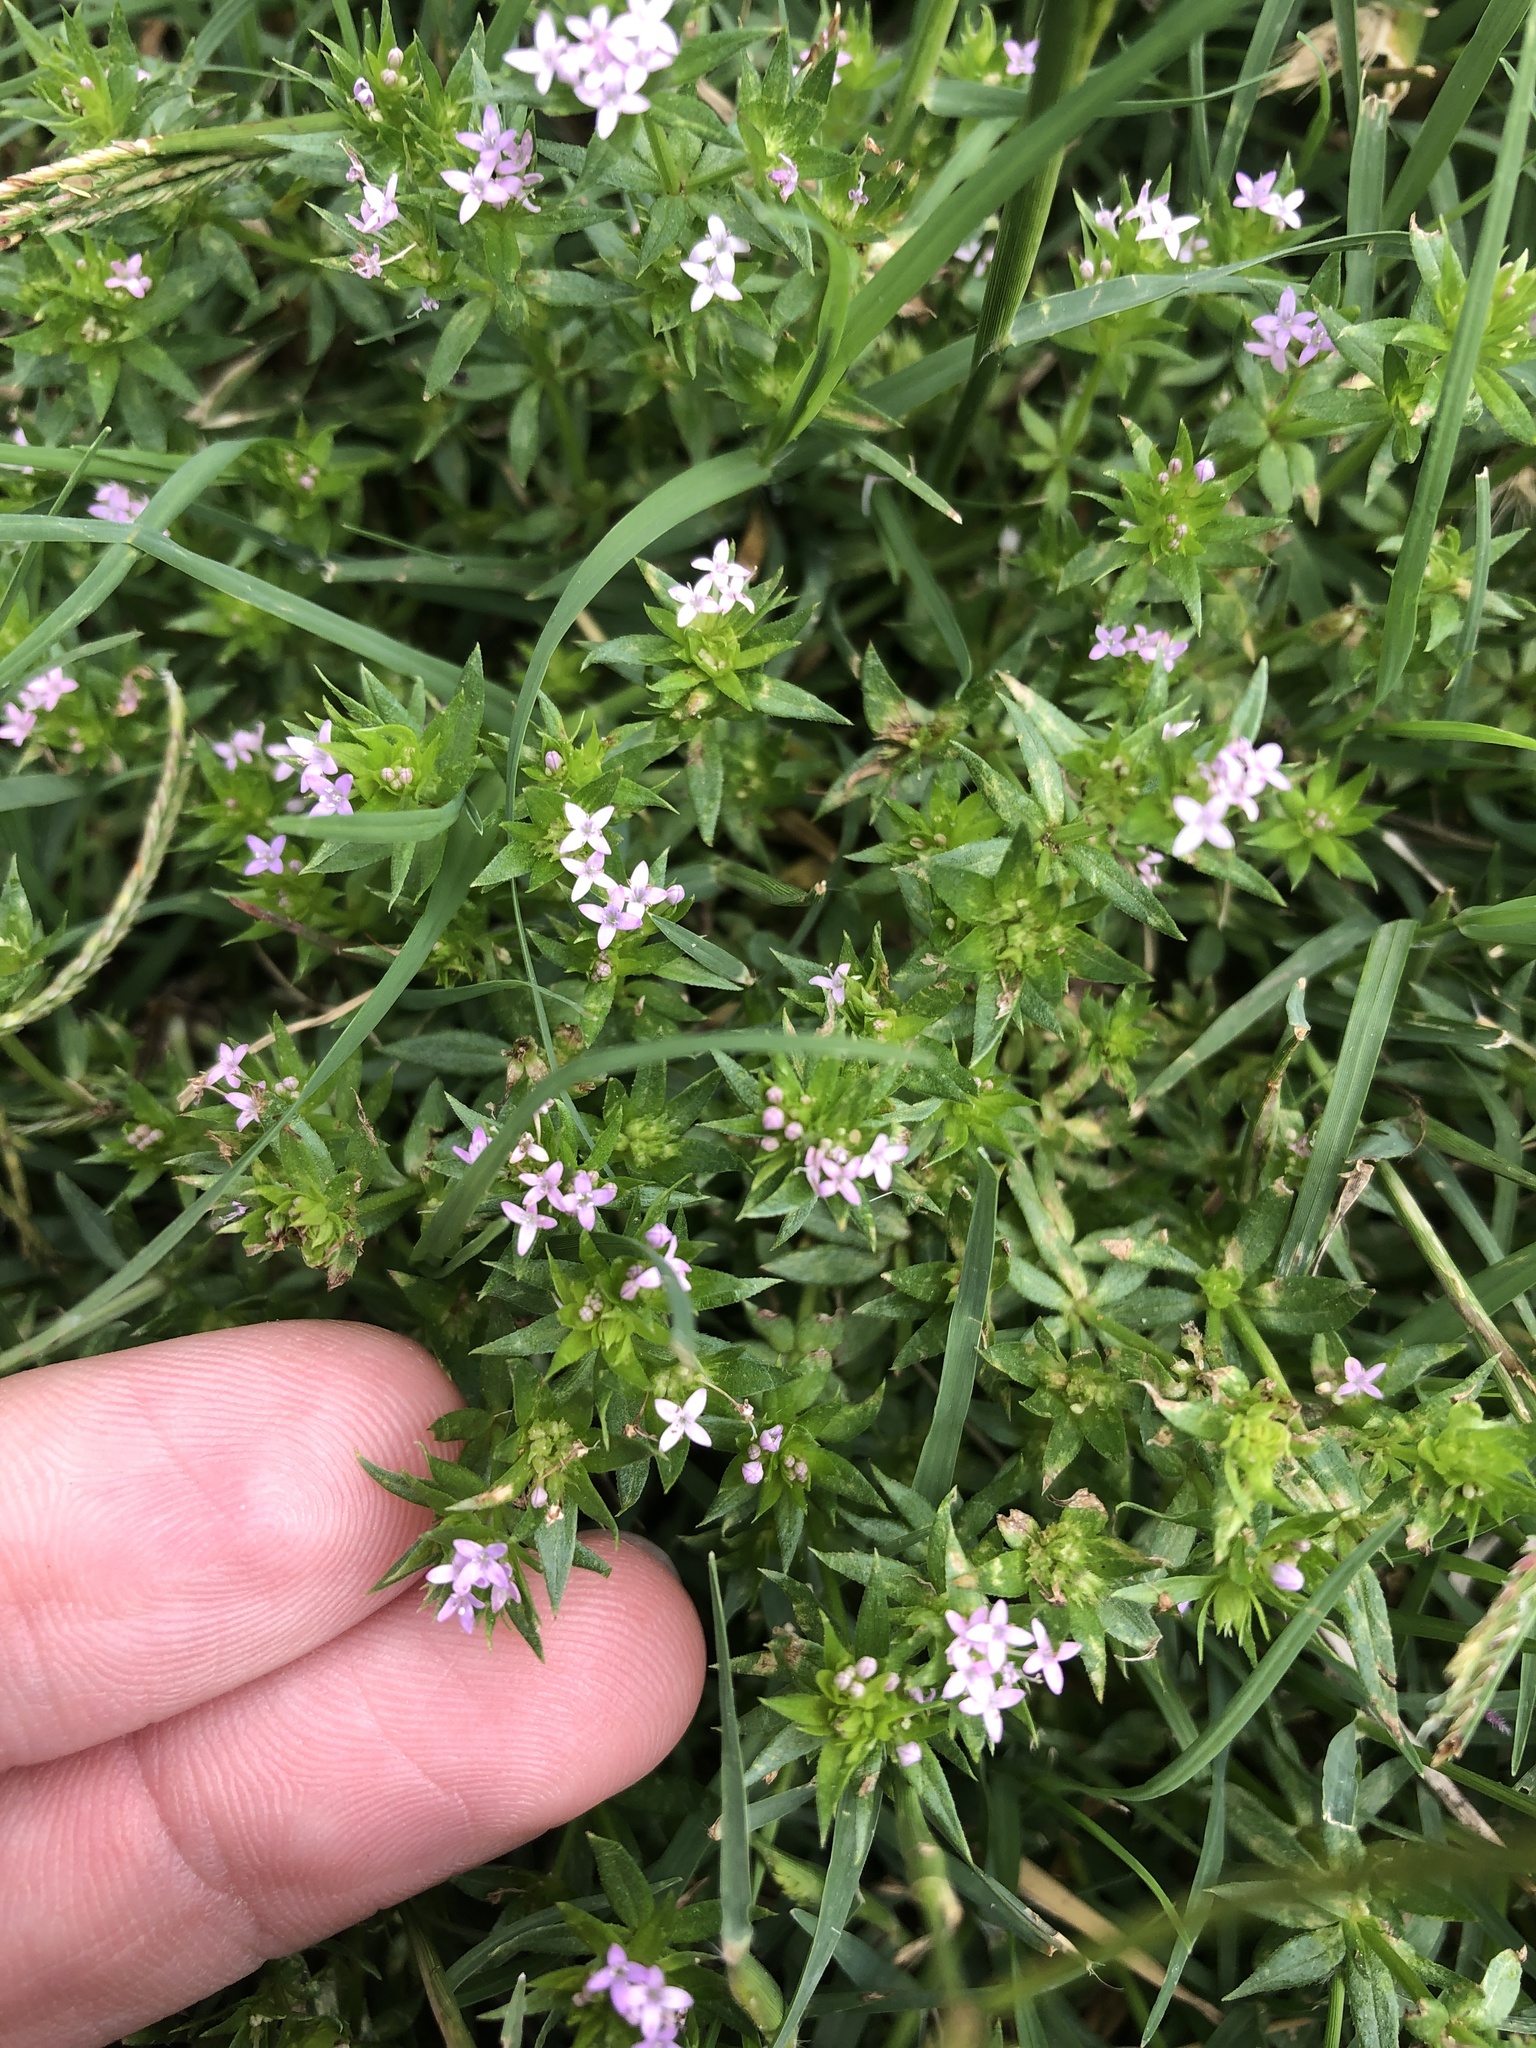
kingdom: Plantae
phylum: Tracheophyta
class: Magnoliopsida
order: Gentianales
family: Rubiaceae
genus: Sherardia
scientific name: Sherardia arvensis
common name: Field madder
